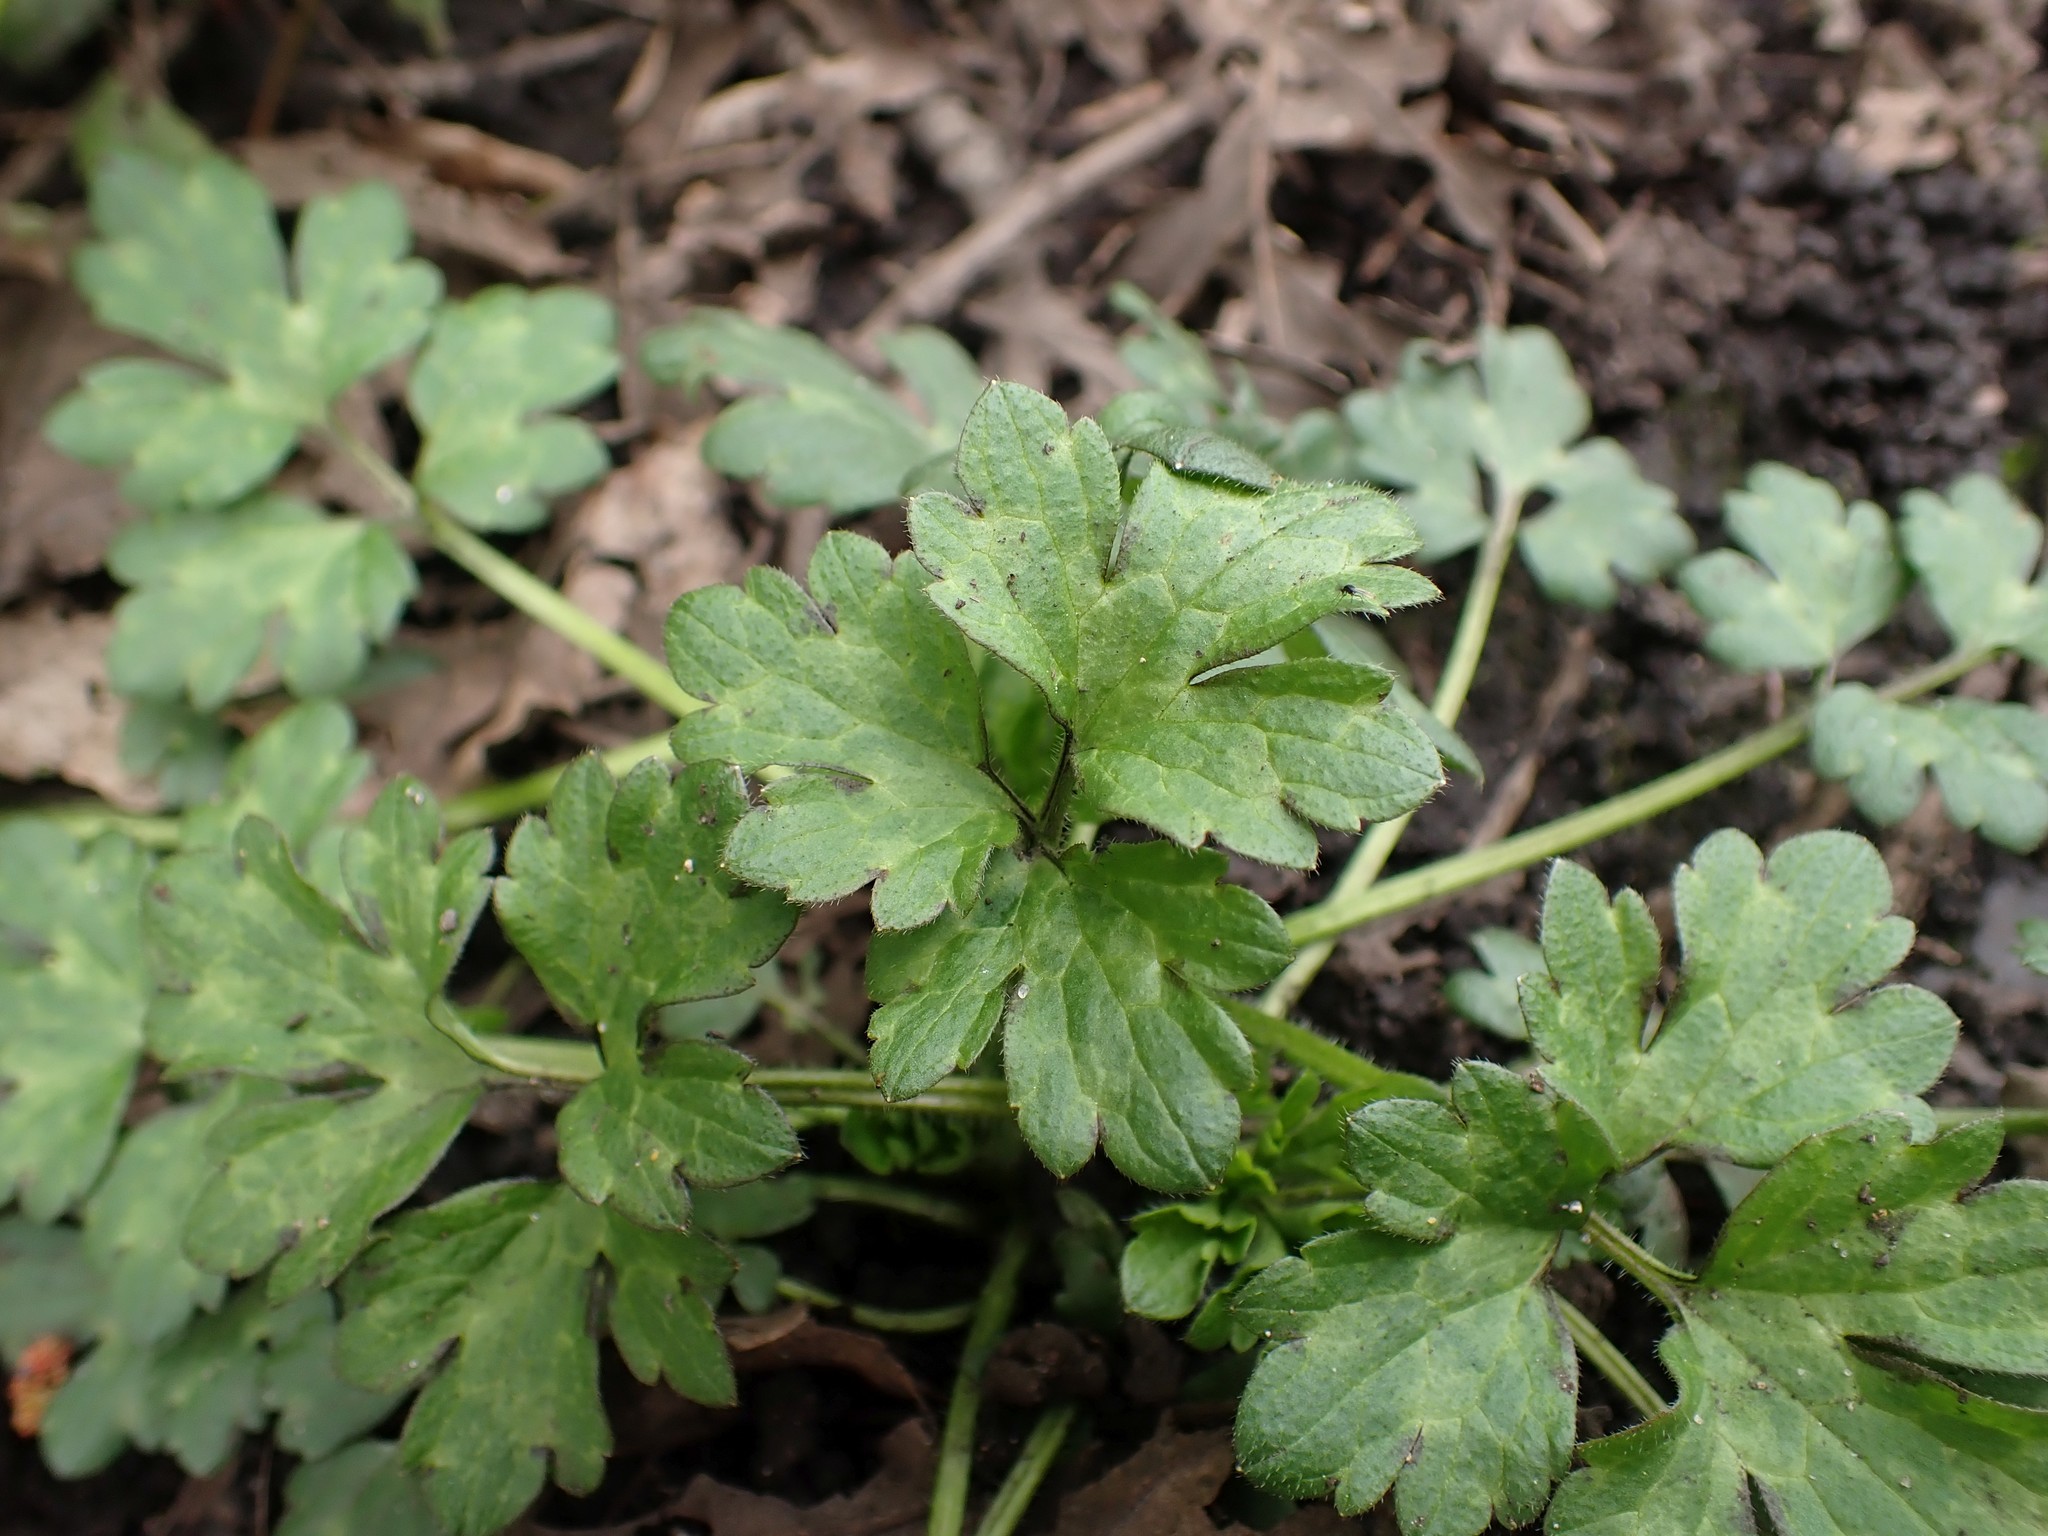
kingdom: Plantae
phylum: Tracheophyta
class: Magnoliopsida
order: Ranunculales
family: Ranunculaceae
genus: Ranunculus
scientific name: Ranunculus repens
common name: Creeping buttercup
